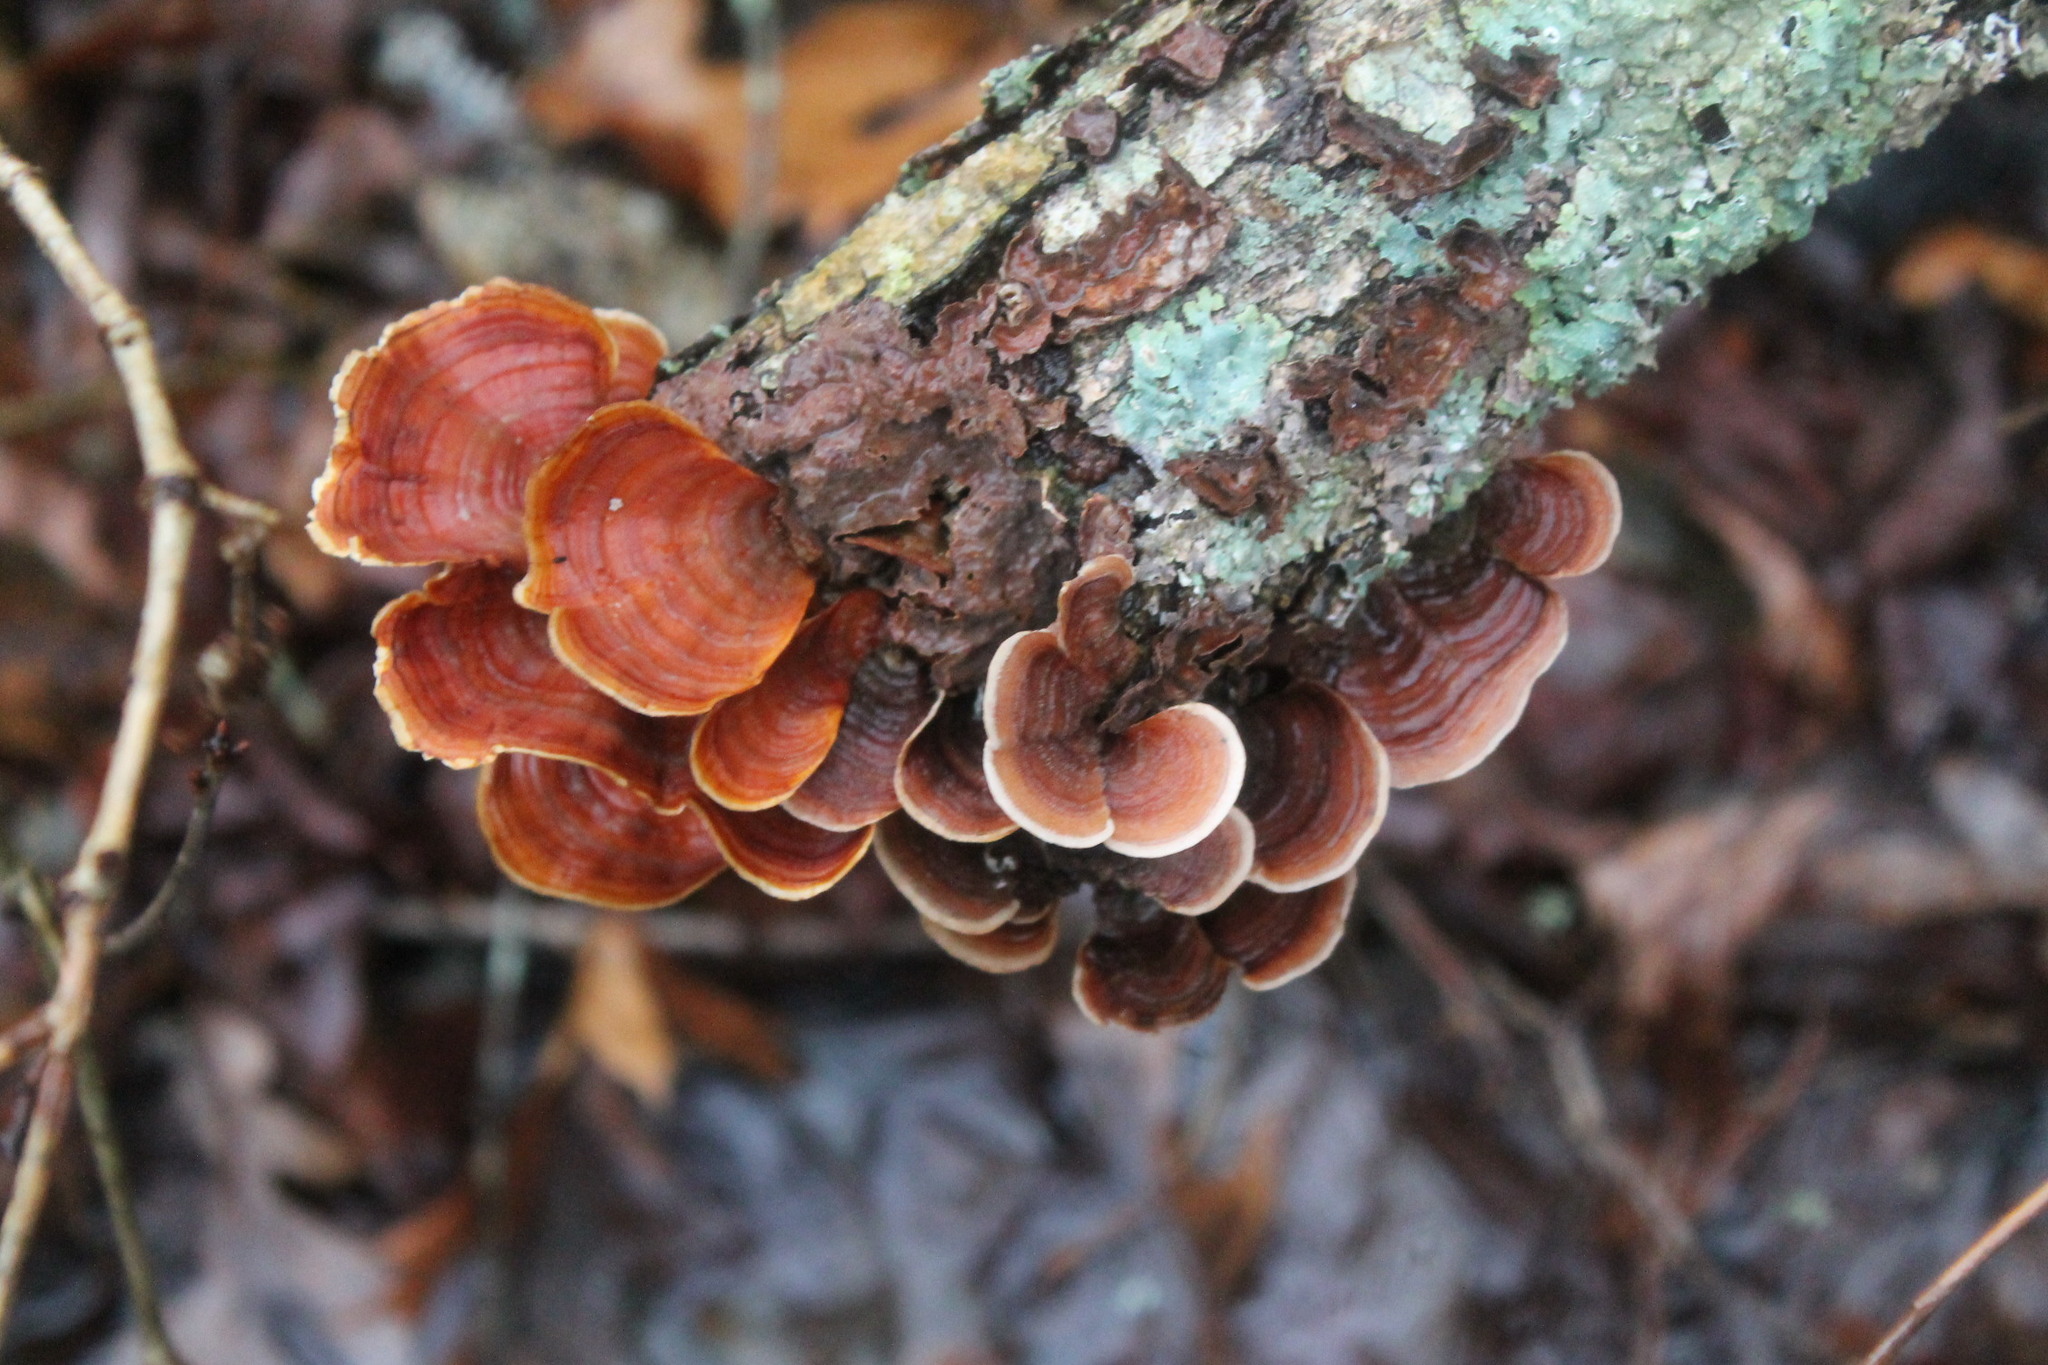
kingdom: Fungi
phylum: Basidiomycota
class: Agaricomycetes
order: Russulales
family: Stereaceae
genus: Stereum
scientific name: Stereum lobatum
